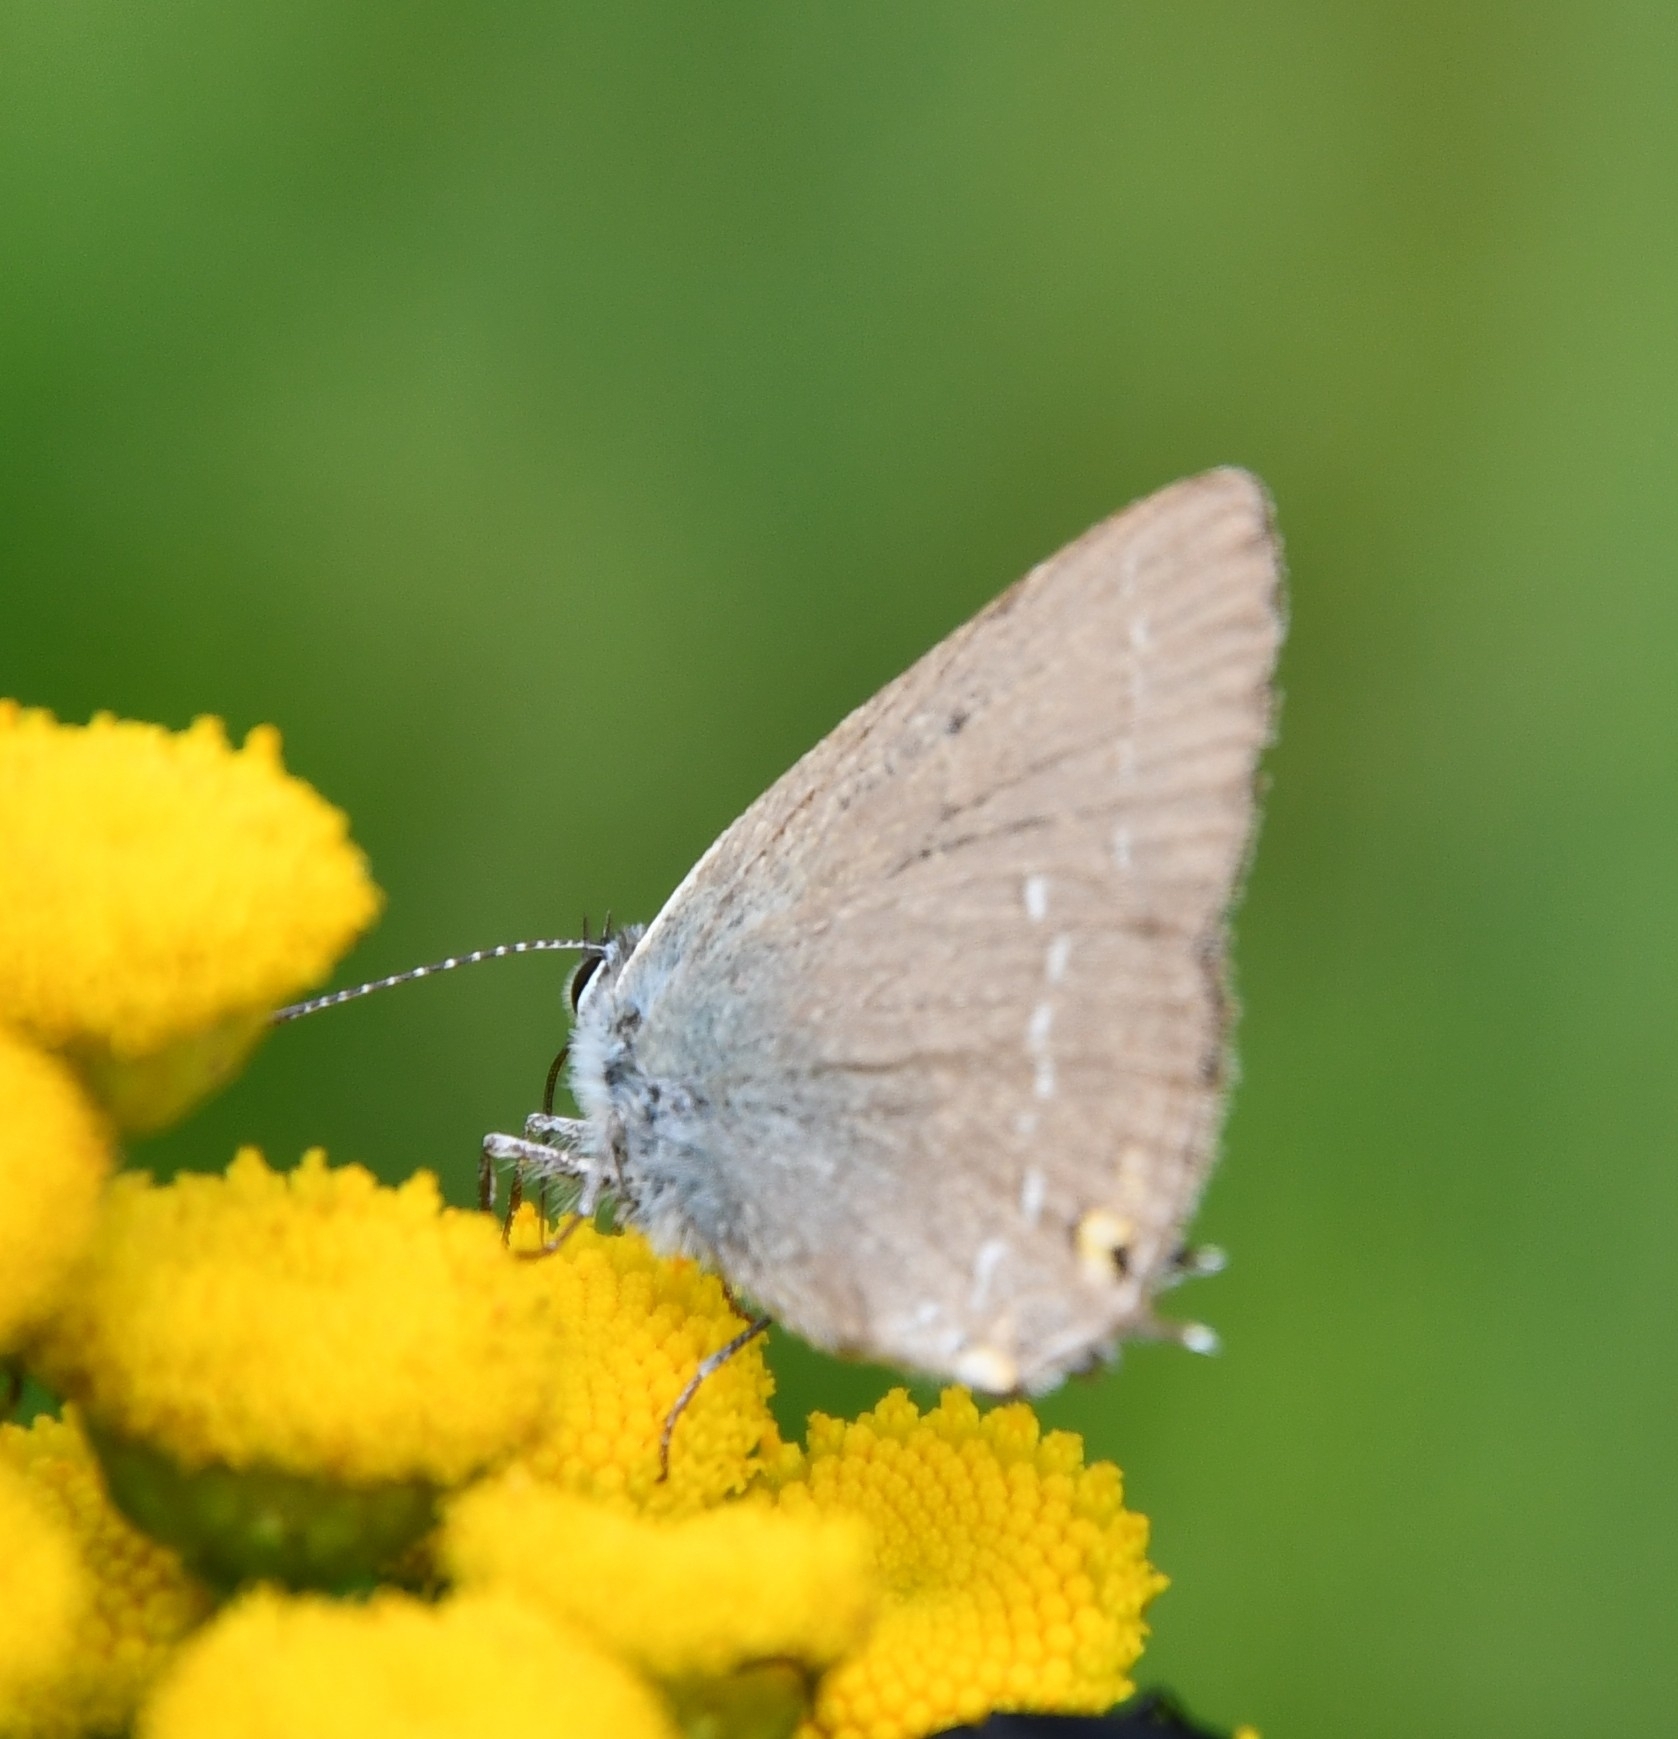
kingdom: Animalia
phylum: Arthropoda
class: Insecta
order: Lepidoptera
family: Lycaenidae
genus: Strymon
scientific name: Strymon acaciae
